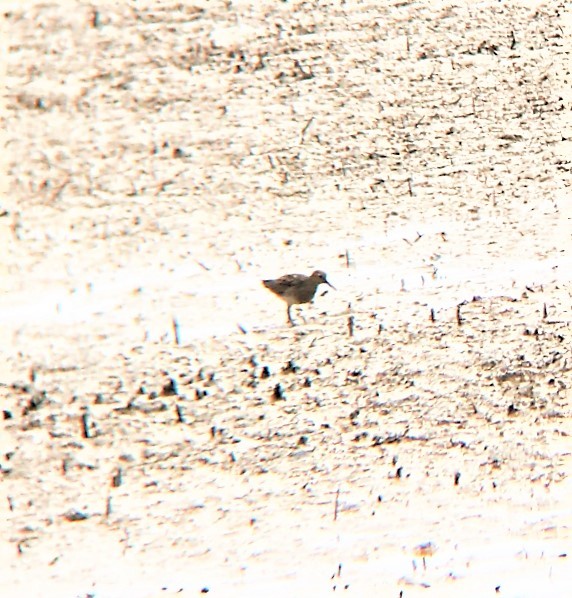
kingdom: Animalia
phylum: Chordata
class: Aves
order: Charadriiformes
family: Scolopacidae
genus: Calidris
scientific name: Calidris melanotos
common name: Pectoral sandpiper
